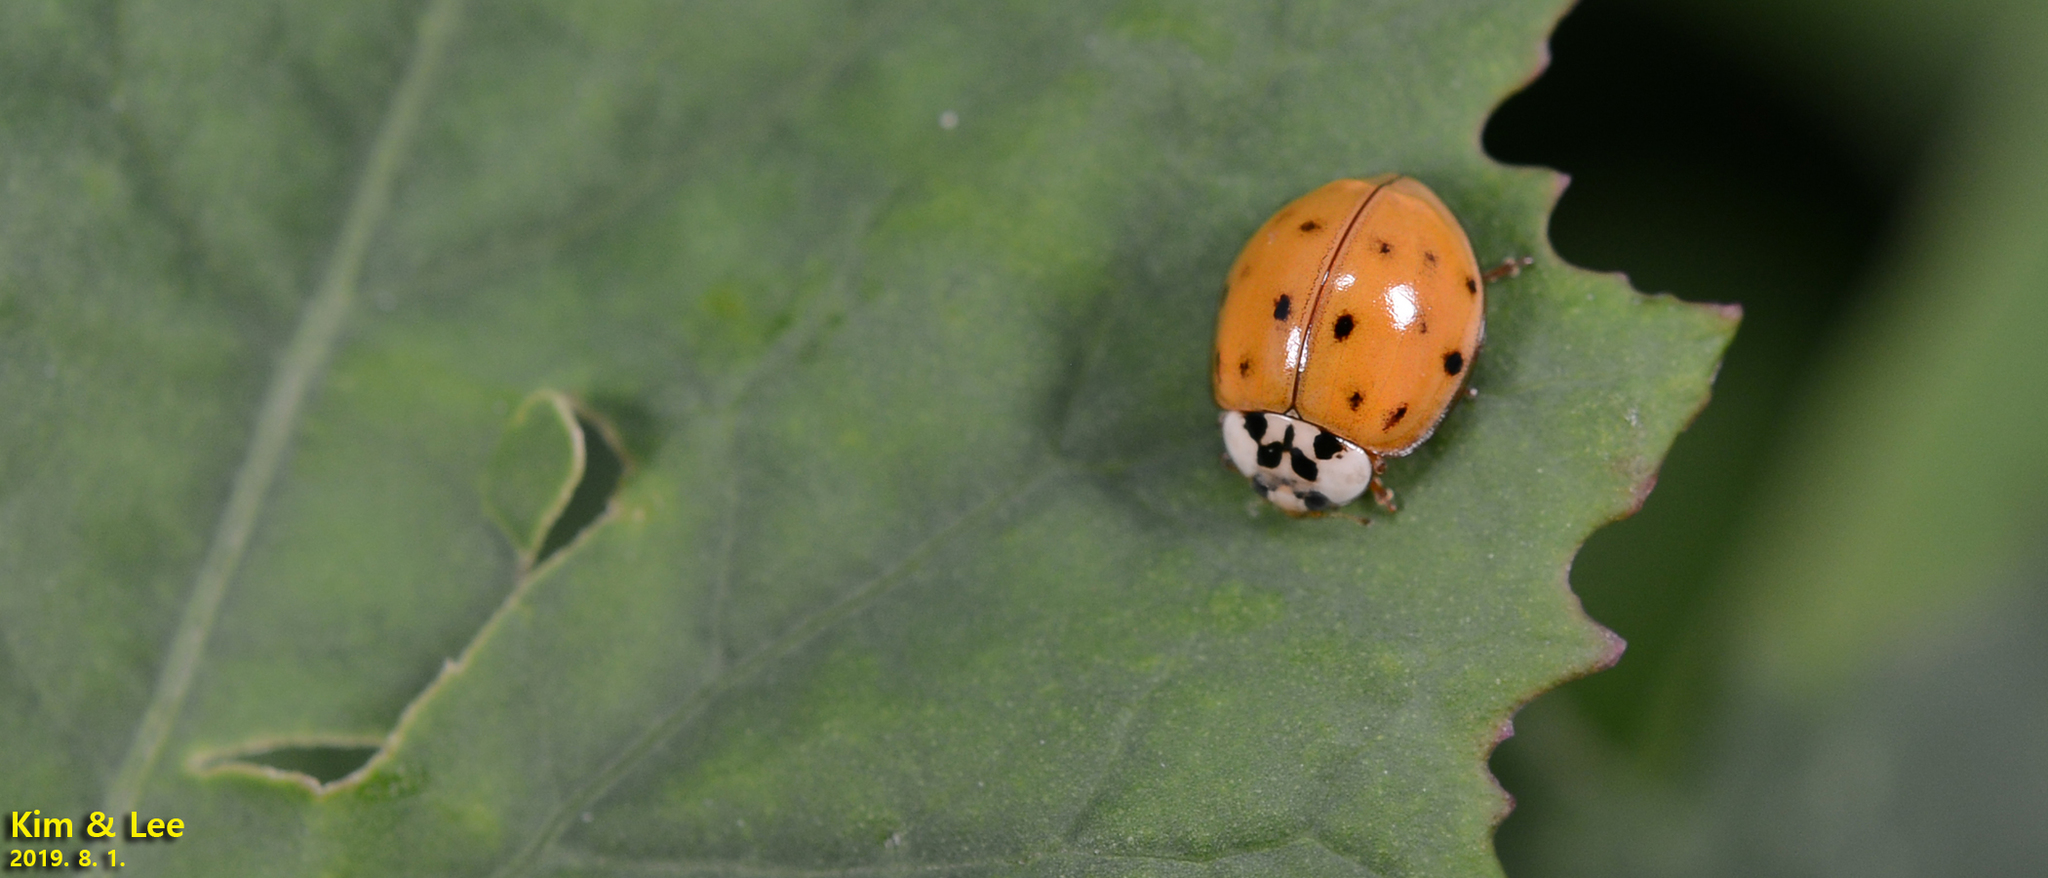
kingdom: Animalia
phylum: Arthropoda
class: Insecta
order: Coleoptera
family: Coccinellidae
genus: Harmonia
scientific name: Harmonia axyridis
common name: Harlequin ladybird
